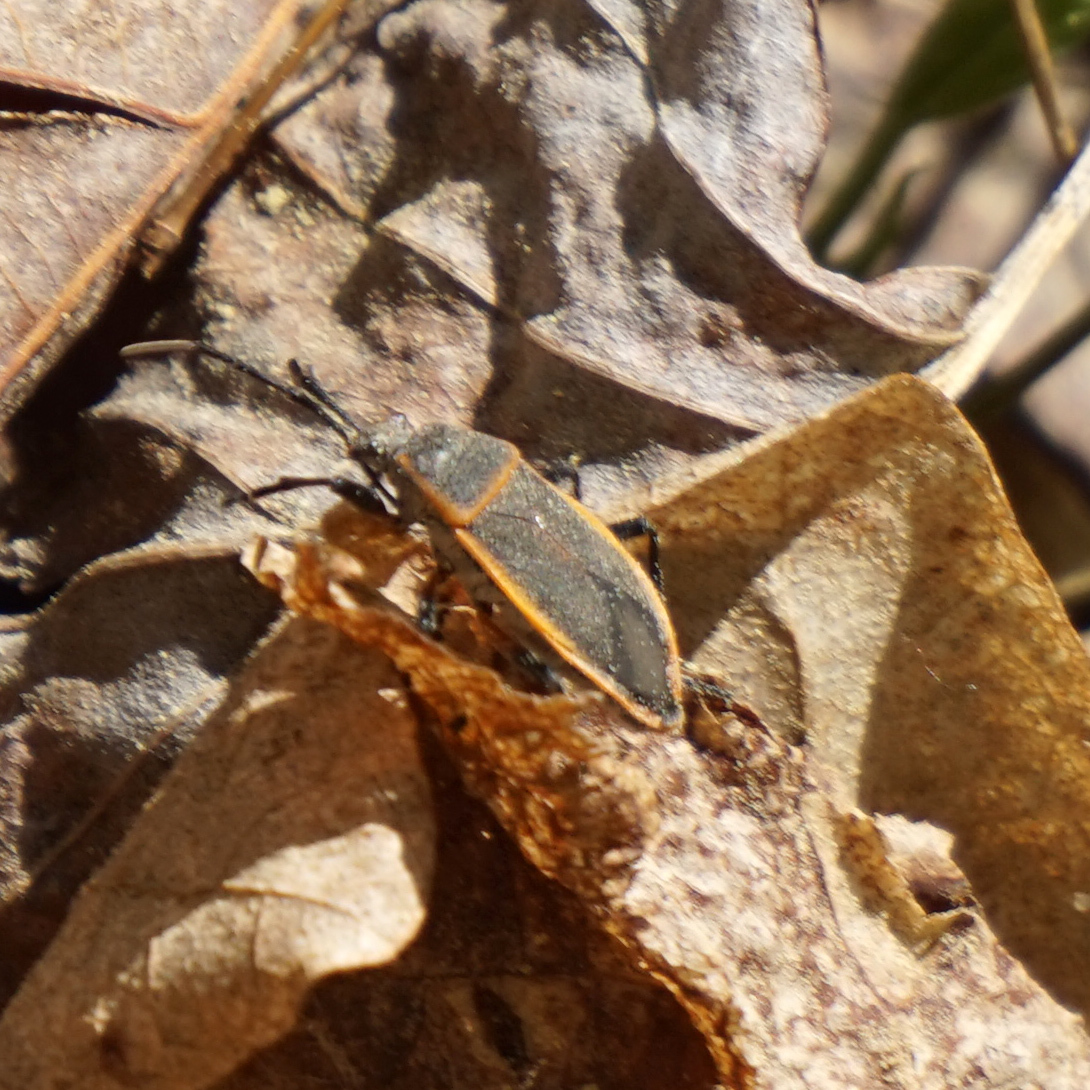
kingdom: Animalia
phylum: Arthropoda
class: Insecta
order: Hemiptera
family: Largidae
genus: Largus
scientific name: Largus succinctus
